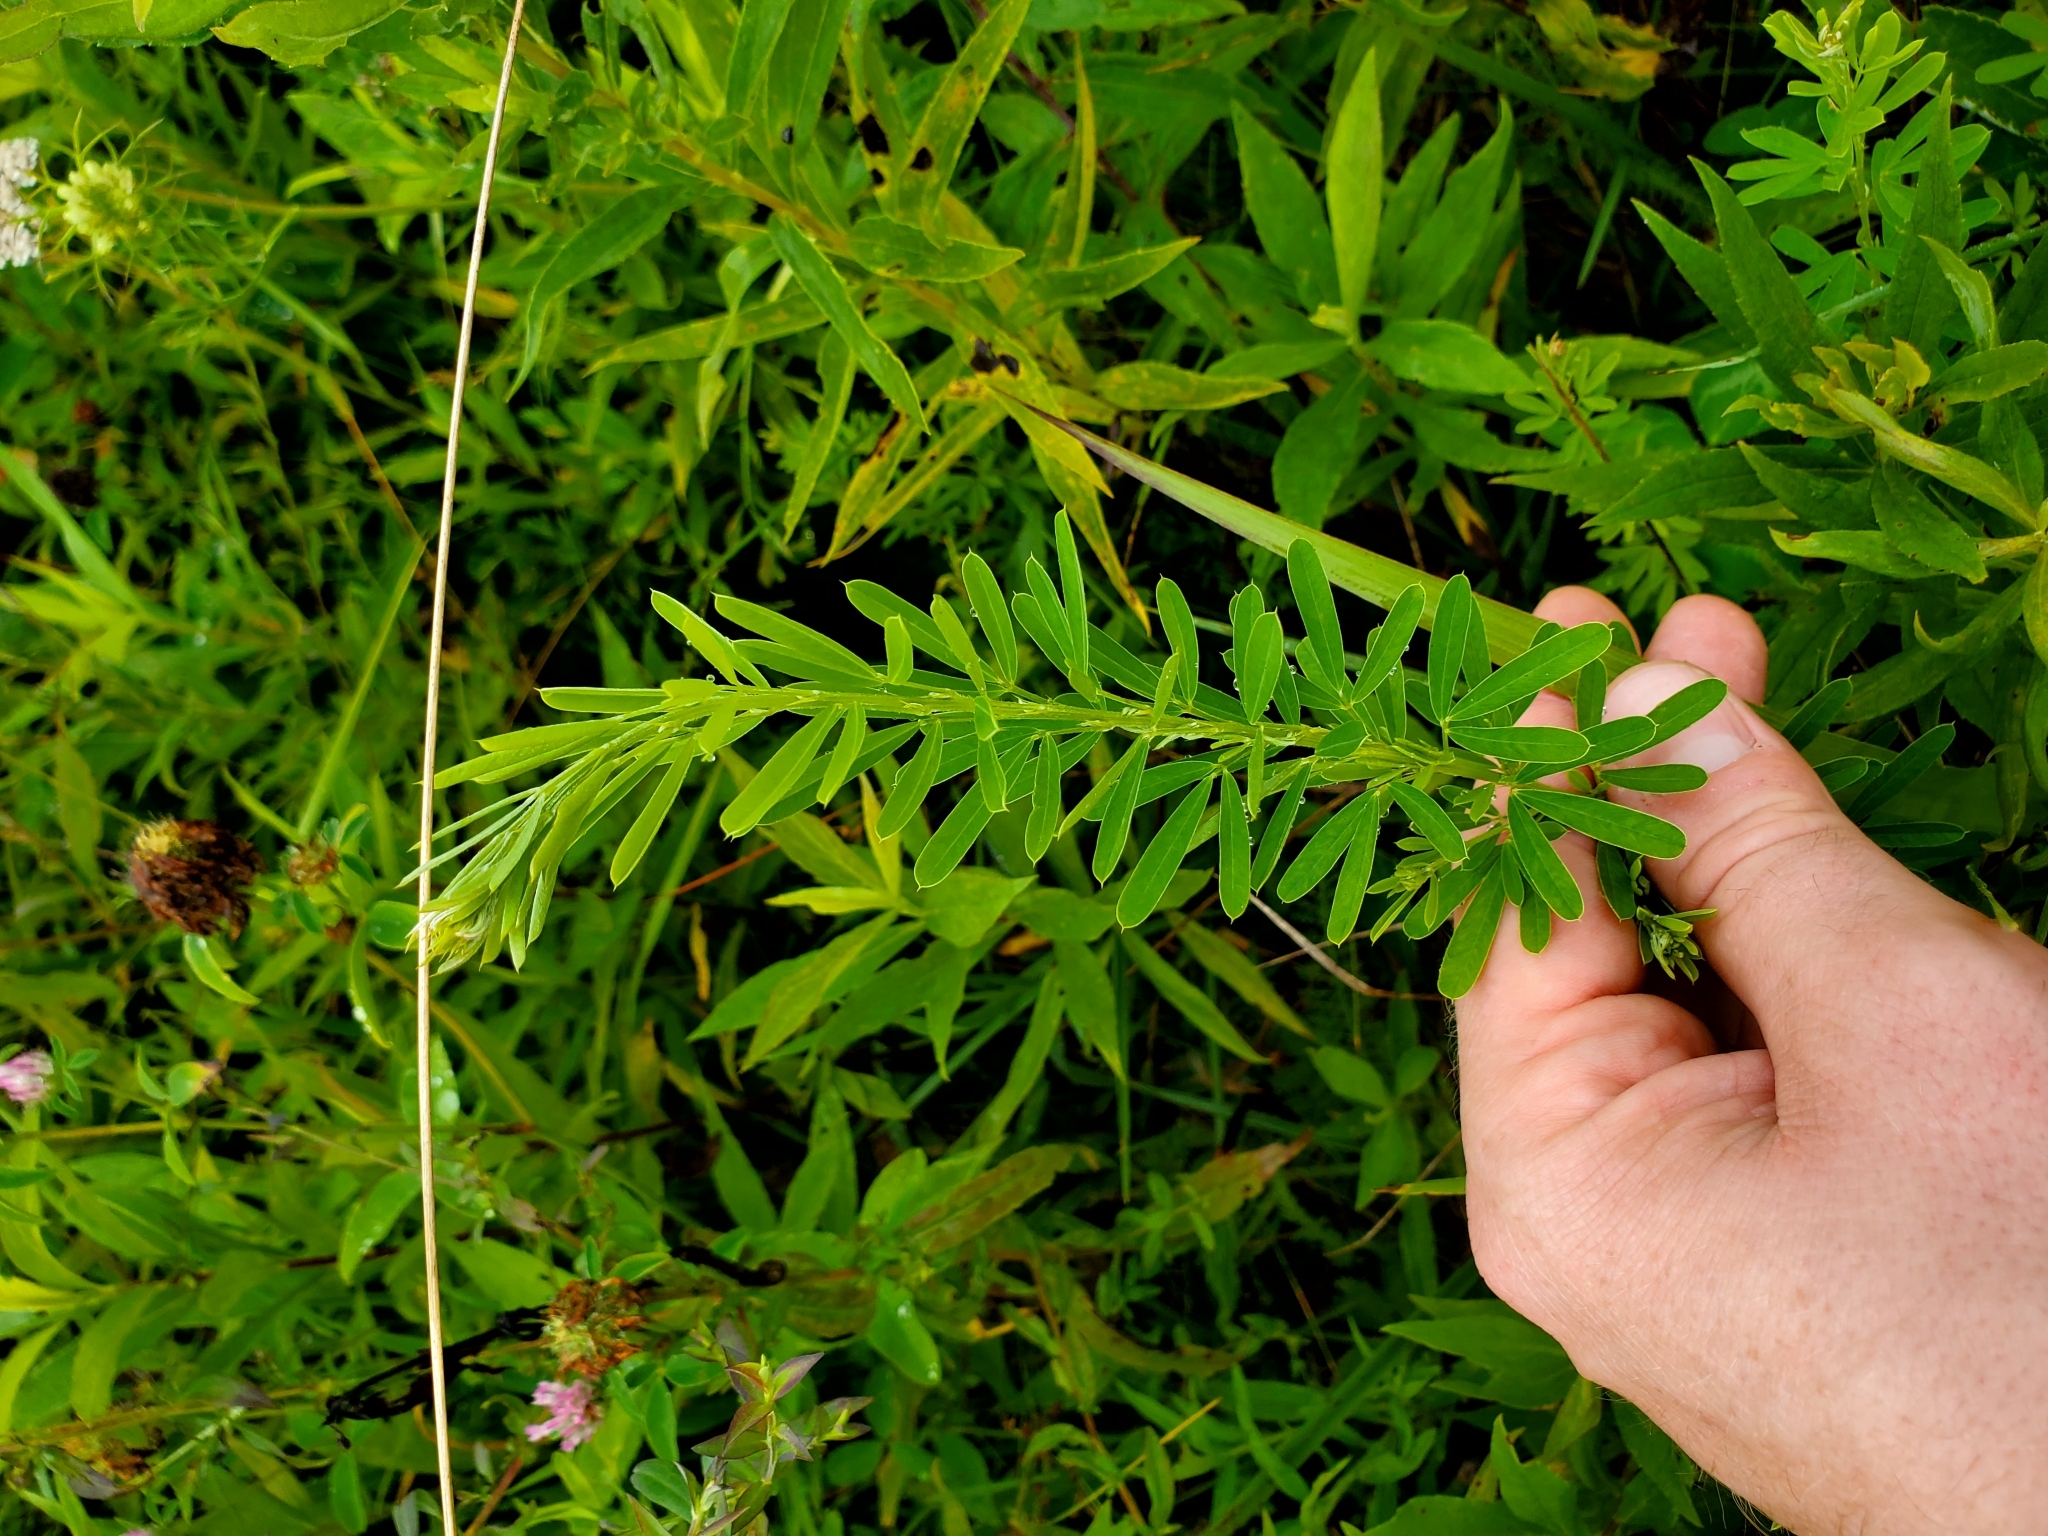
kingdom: Plantae
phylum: Tracheophyta
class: Magnoliopsida
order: Fabales
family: Fabaceae
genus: Lespedeza
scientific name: Lespedeza cuneata
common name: Chinese bush-clover
